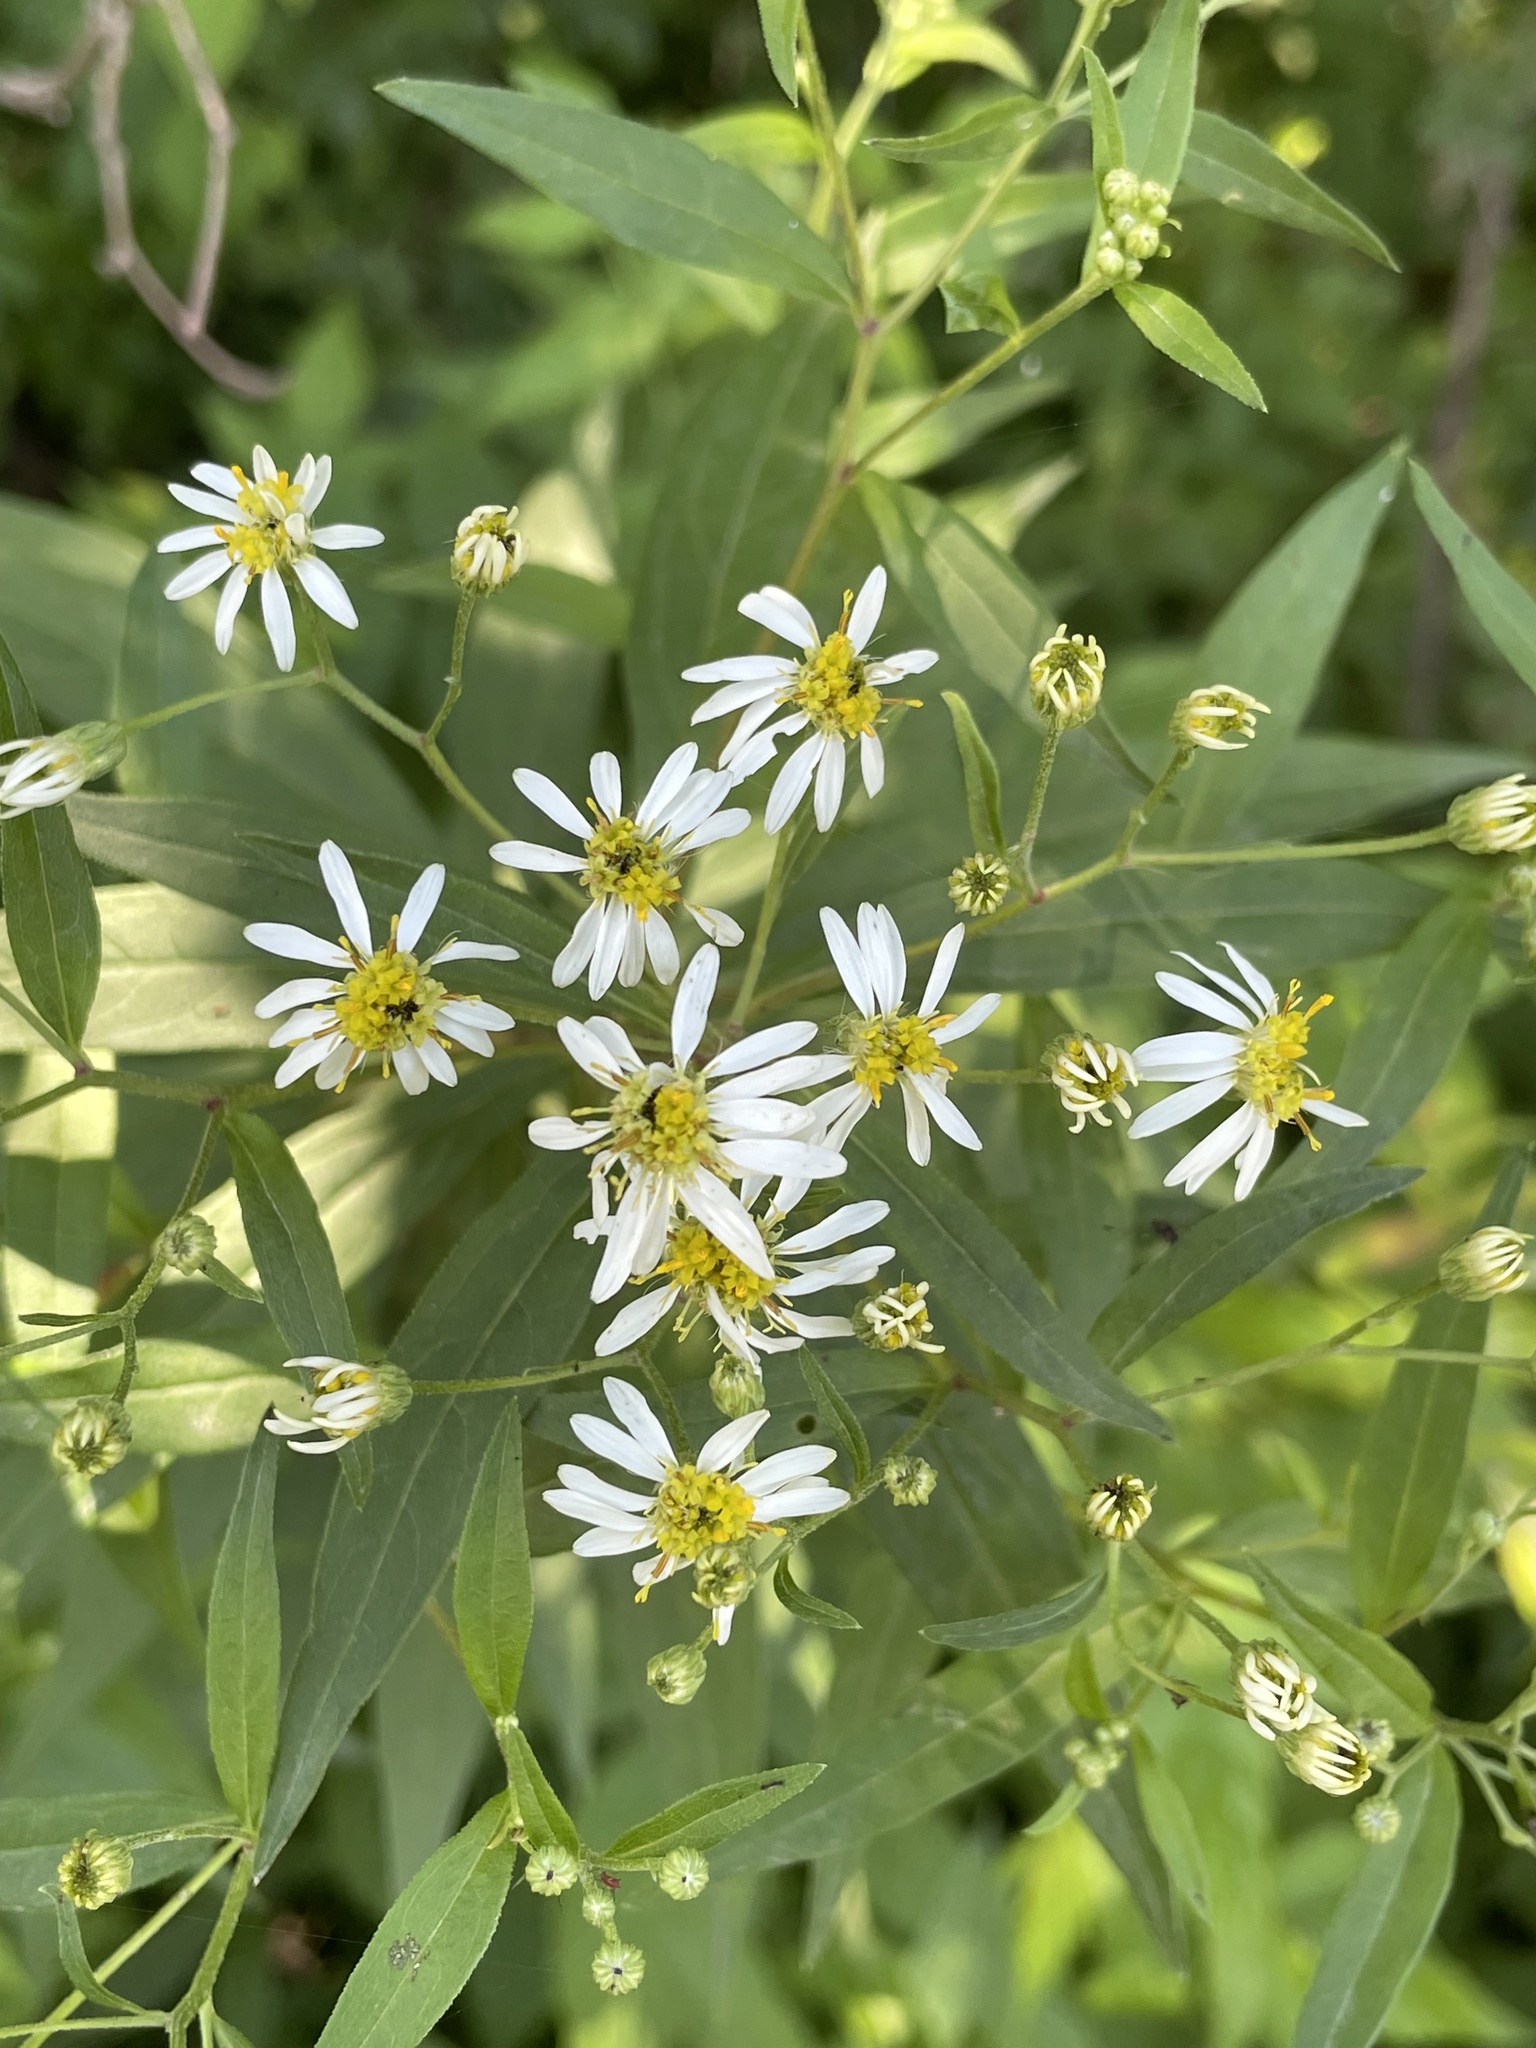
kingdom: Plantae
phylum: Tracheophyta
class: Magnoliopsida
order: Asterales
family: Asteraceae
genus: Doellingeria
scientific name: Doellingeria umbellata
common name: Flat-top white aster
